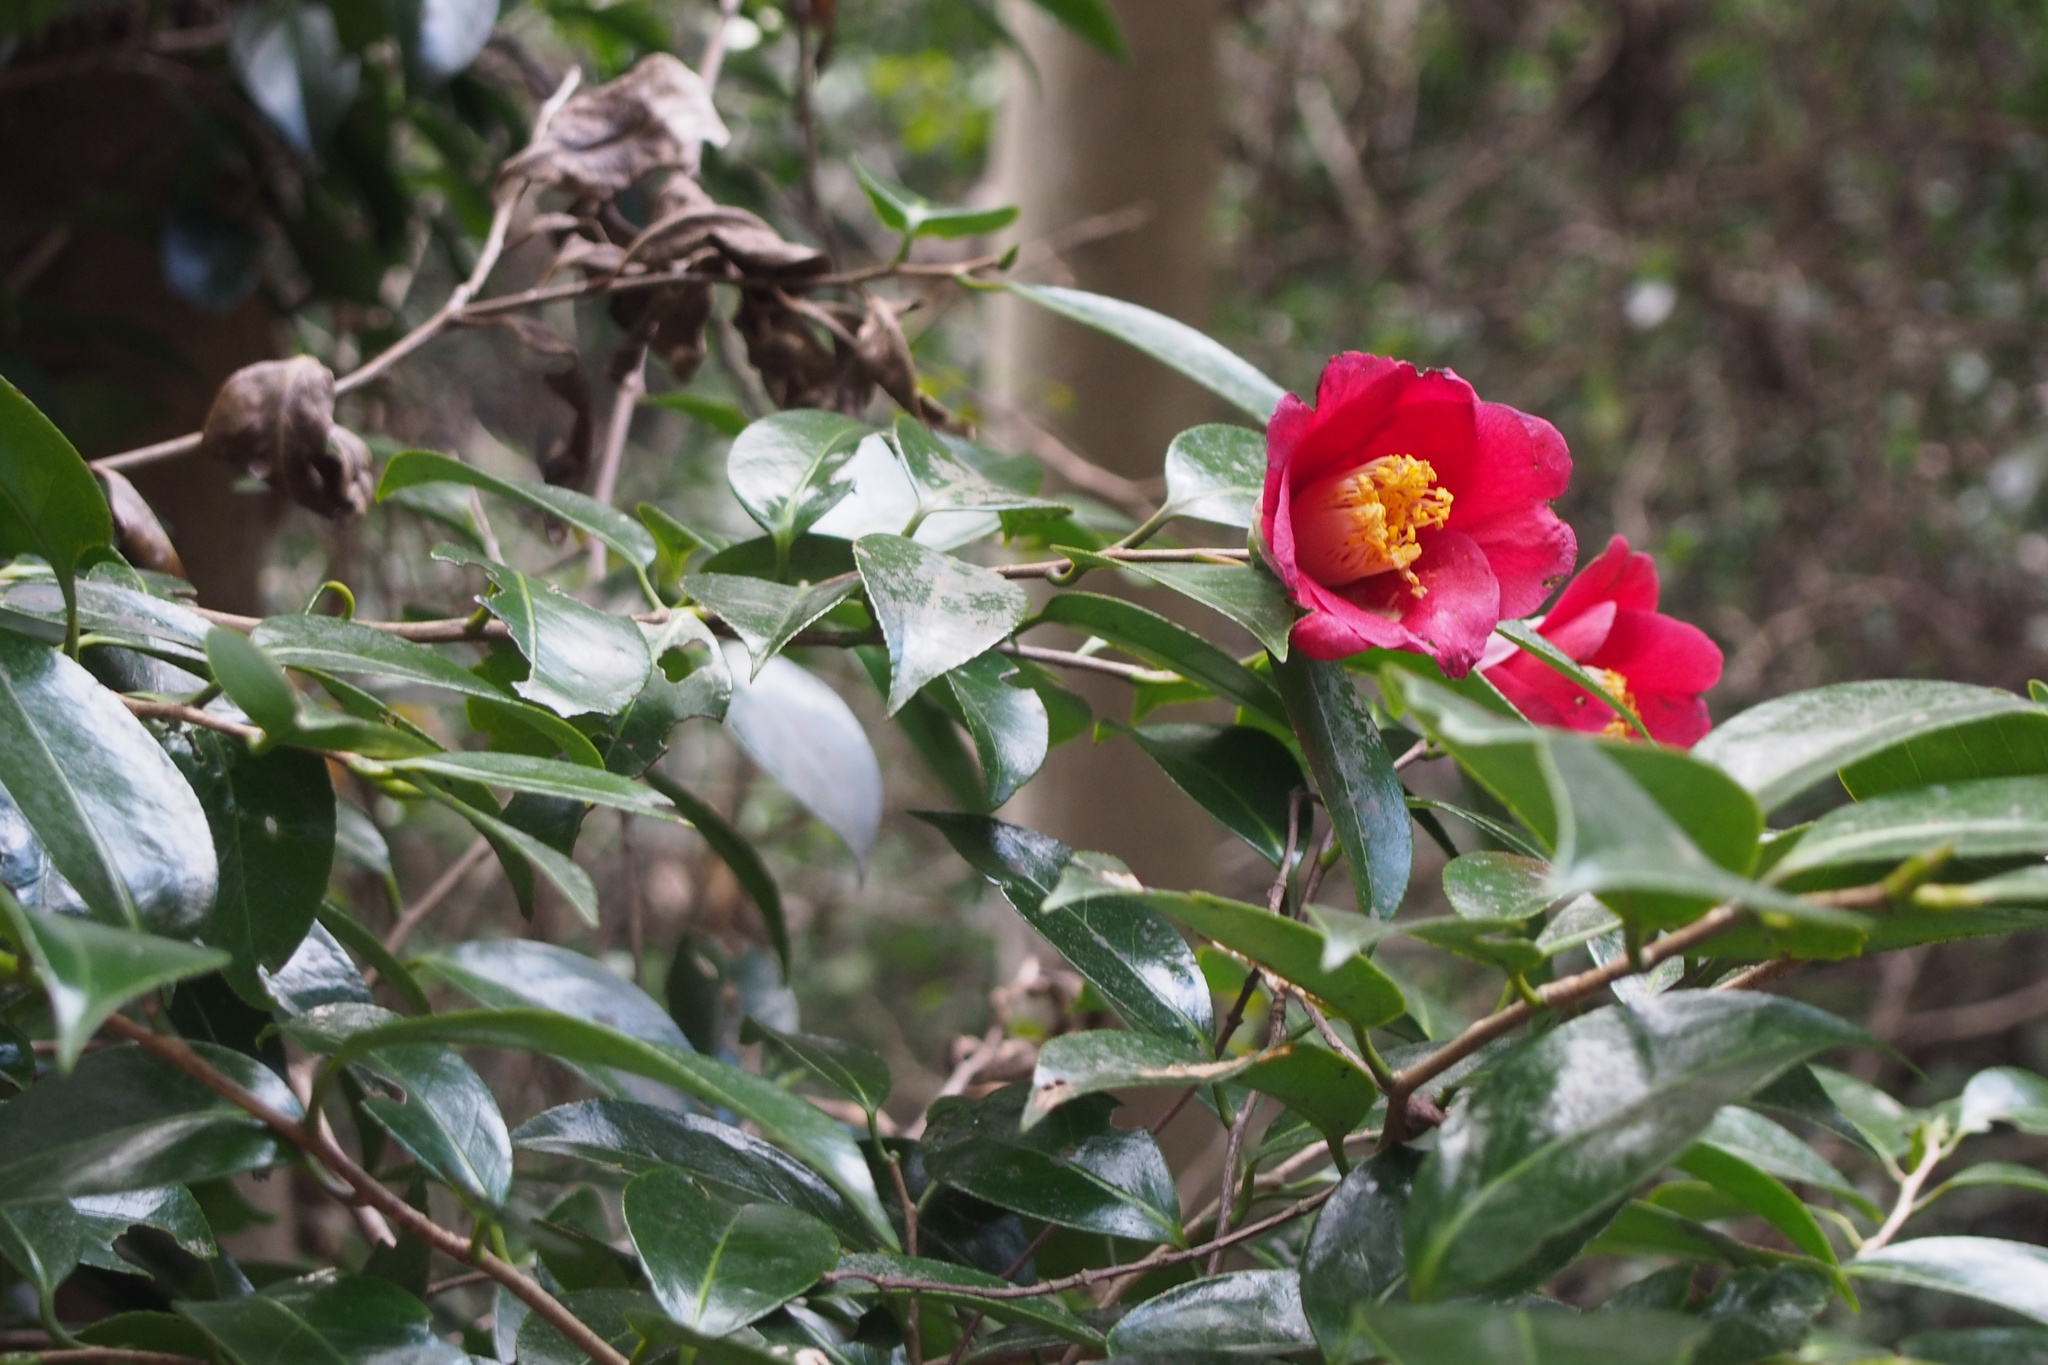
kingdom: Plantae
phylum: Tracheophyta
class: Magnoliopsida
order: Ericales
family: Theaceae
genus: Camellia
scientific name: Camellia japonica
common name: Camellia
